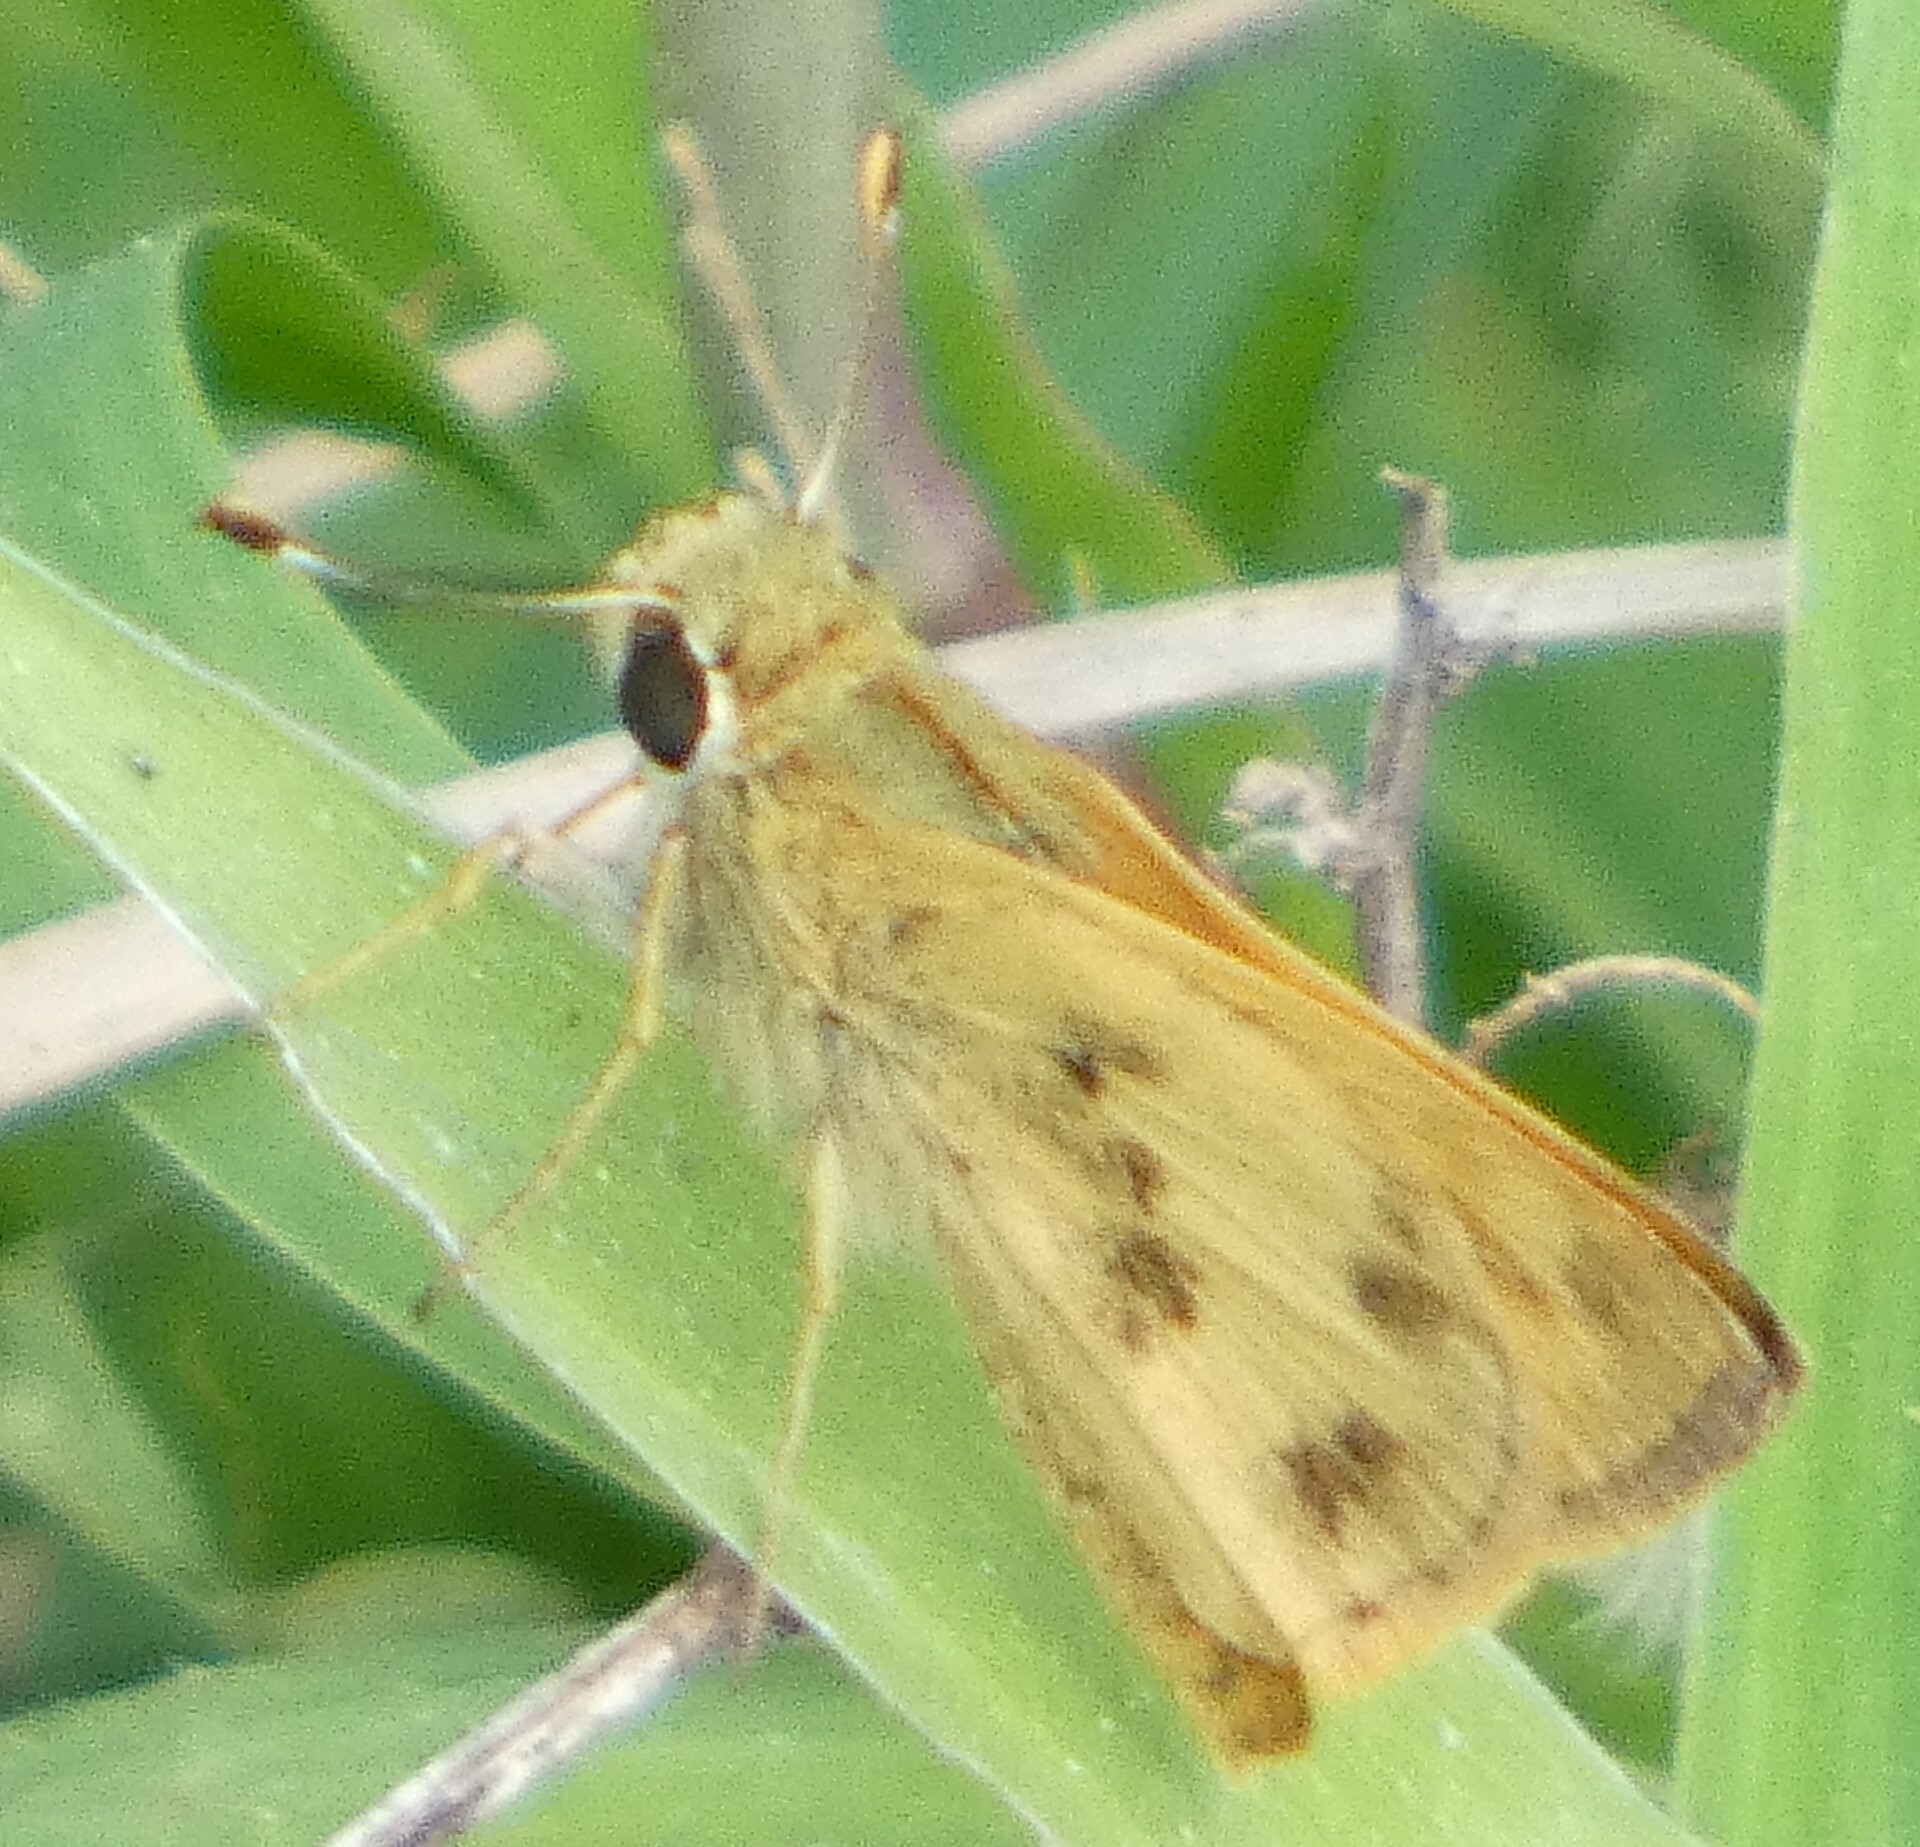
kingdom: Animalia
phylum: Arthropoda
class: Insecta
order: Lepidoptera
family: Hesperiidae
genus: Polites
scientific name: Polites vibex
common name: Whirlabout
